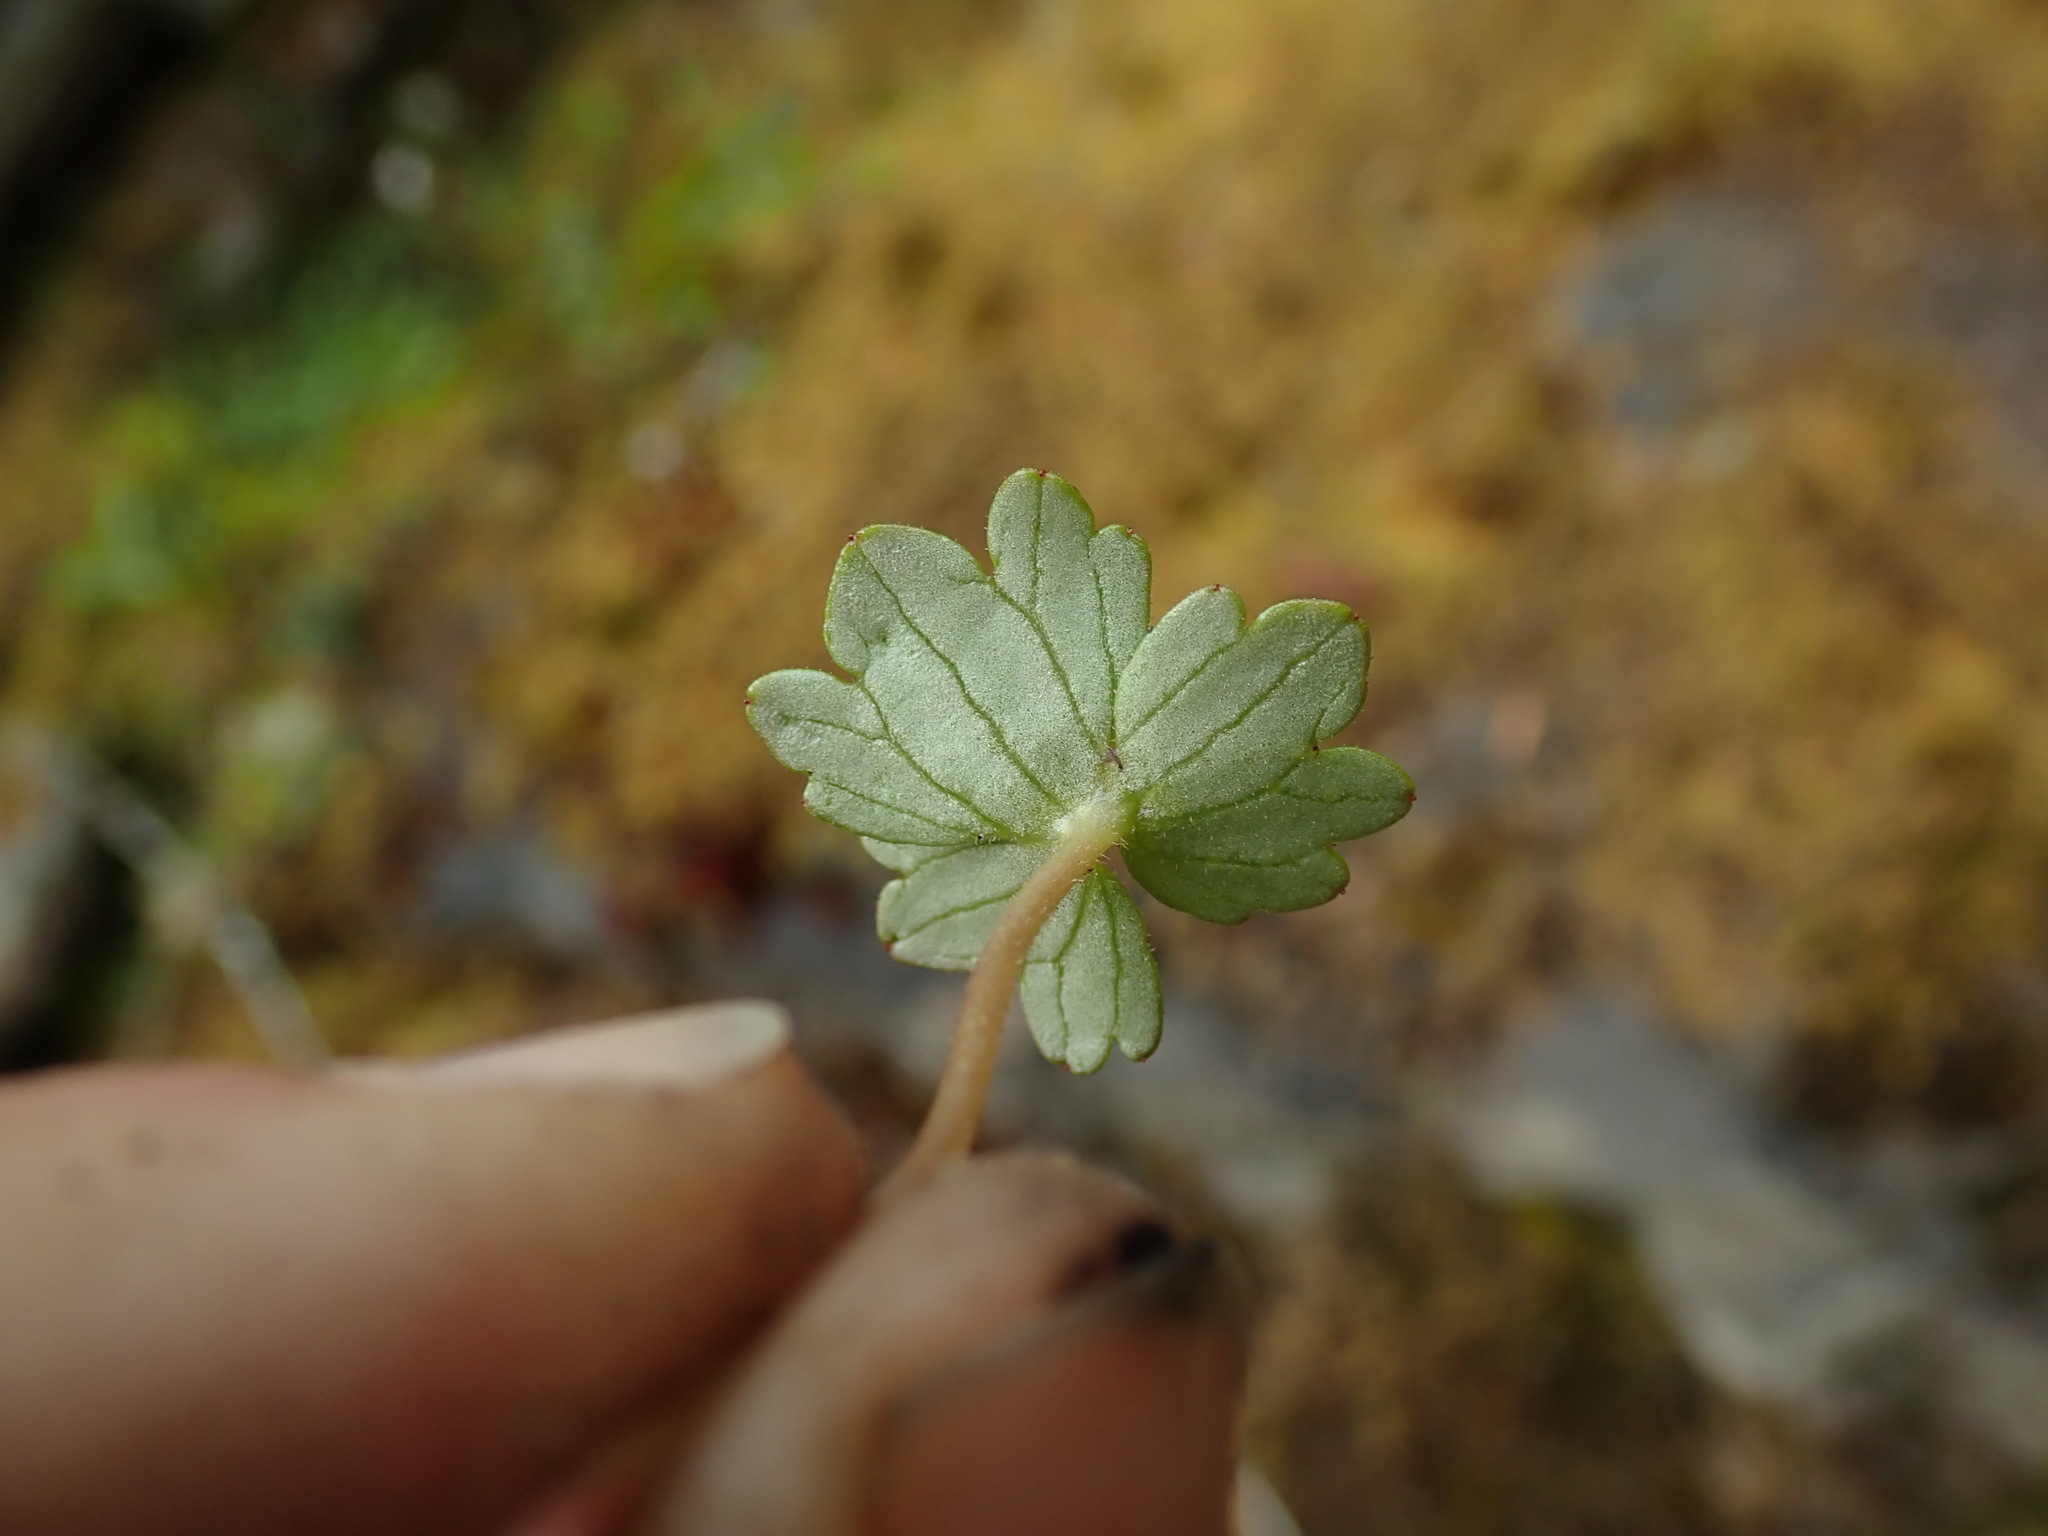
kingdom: Plantae
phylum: Tracheophyta
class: Magnoliopsida
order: Saxifragales
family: Saxifragaceae
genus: Hemieva
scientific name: Hemieva ranunculifolia
